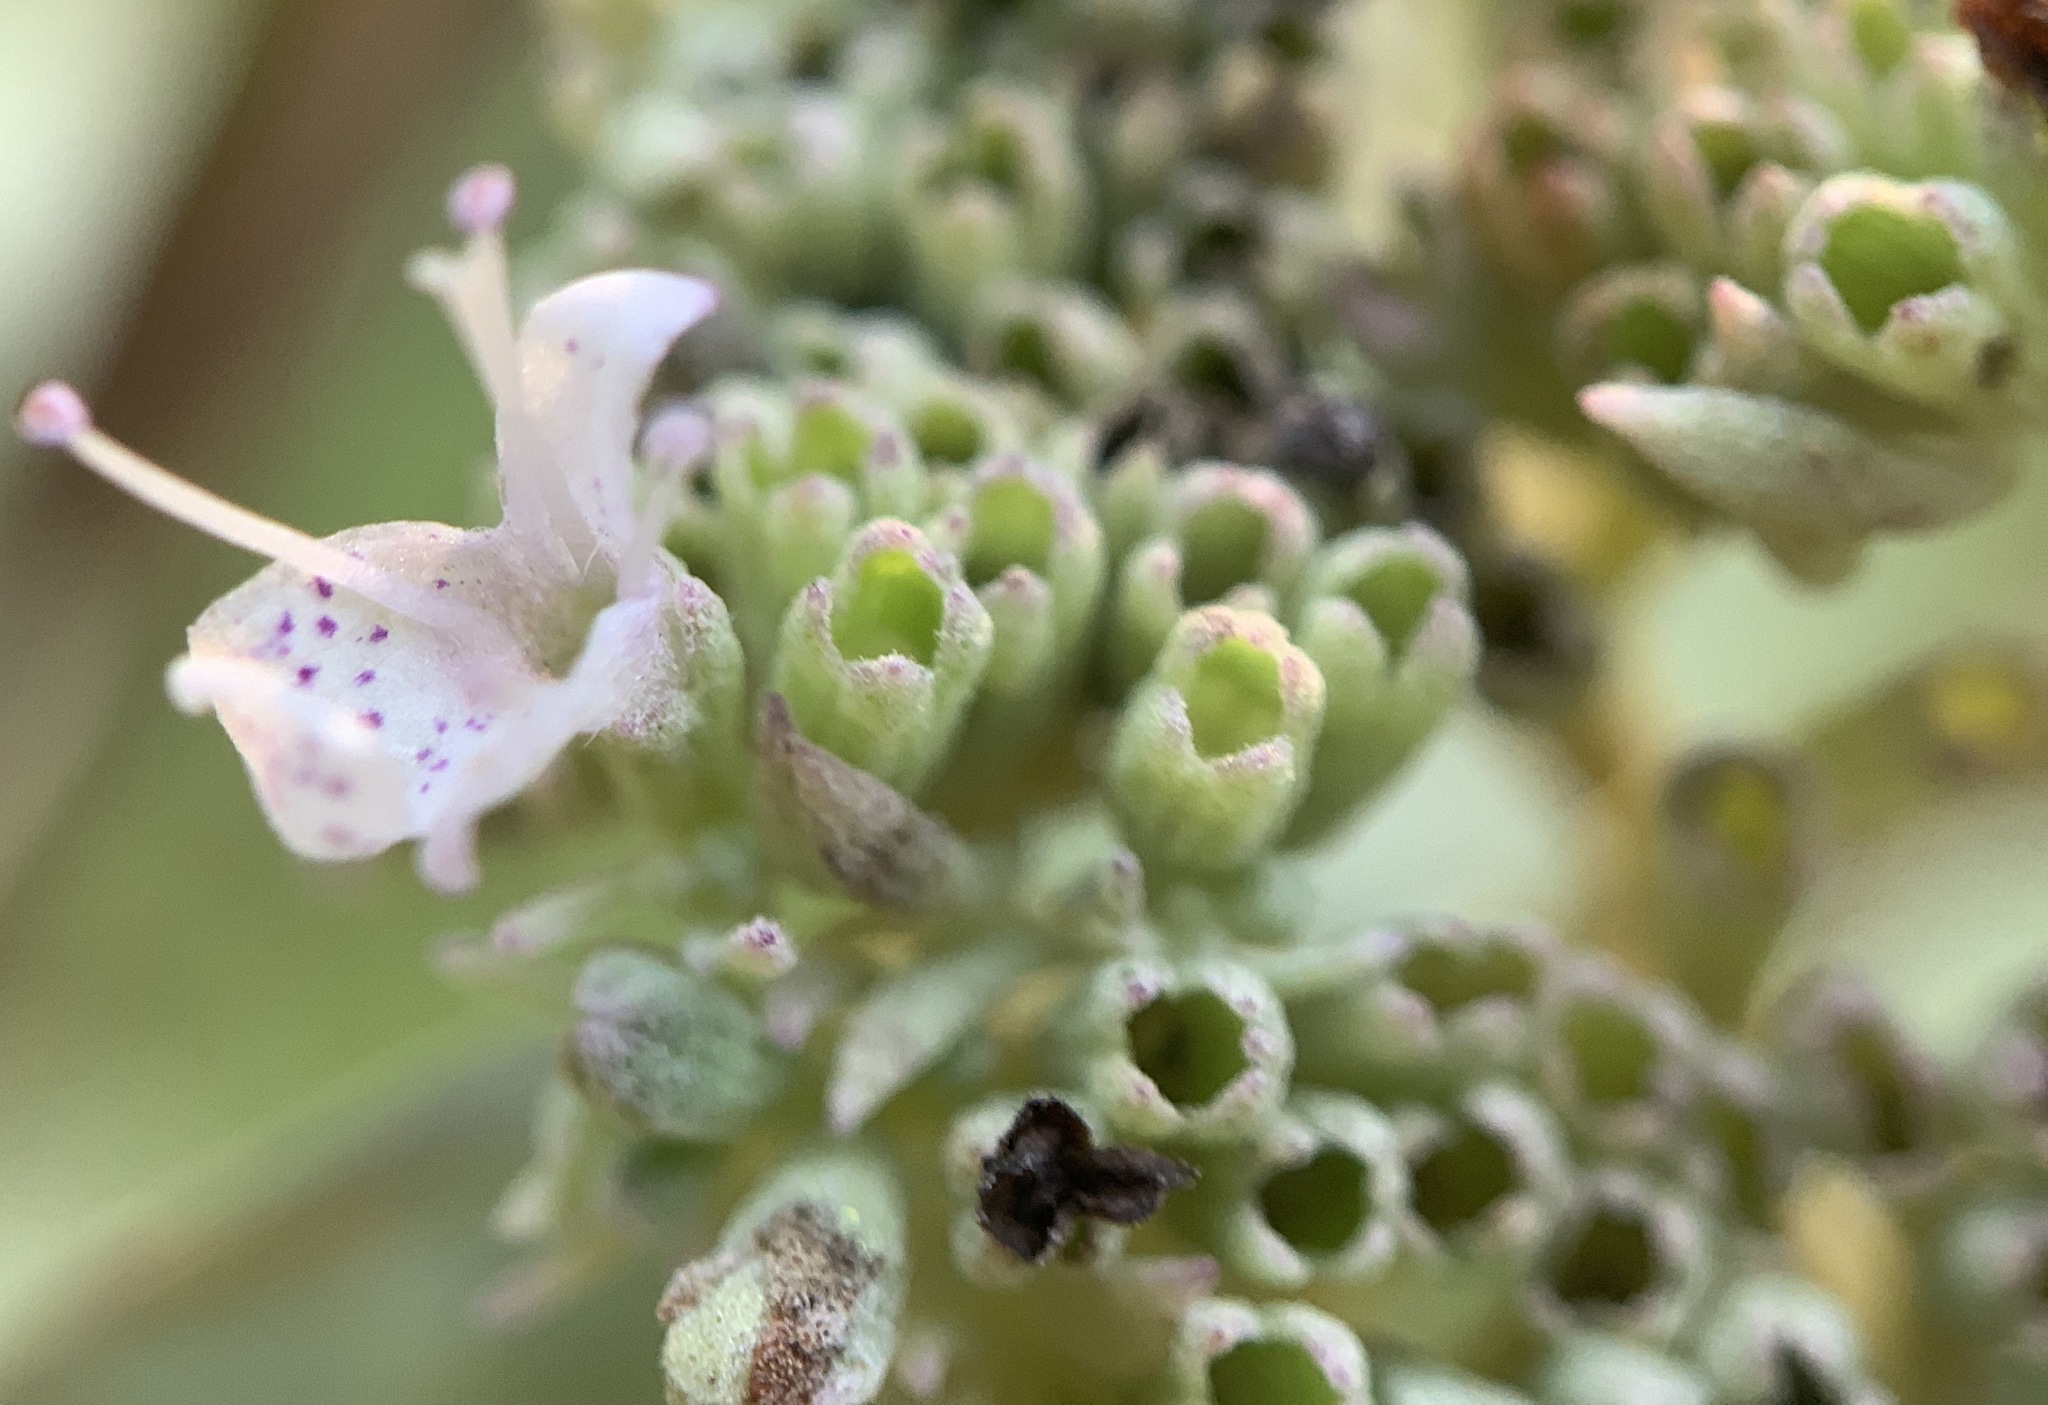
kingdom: Plantae
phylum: Tracheophyta
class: Magnoliopsida
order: Lamiales
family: Lamiaceae
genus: Pycnanthemum
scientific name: Pycnanthemum albescens
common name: White-leaf mountain-mint
